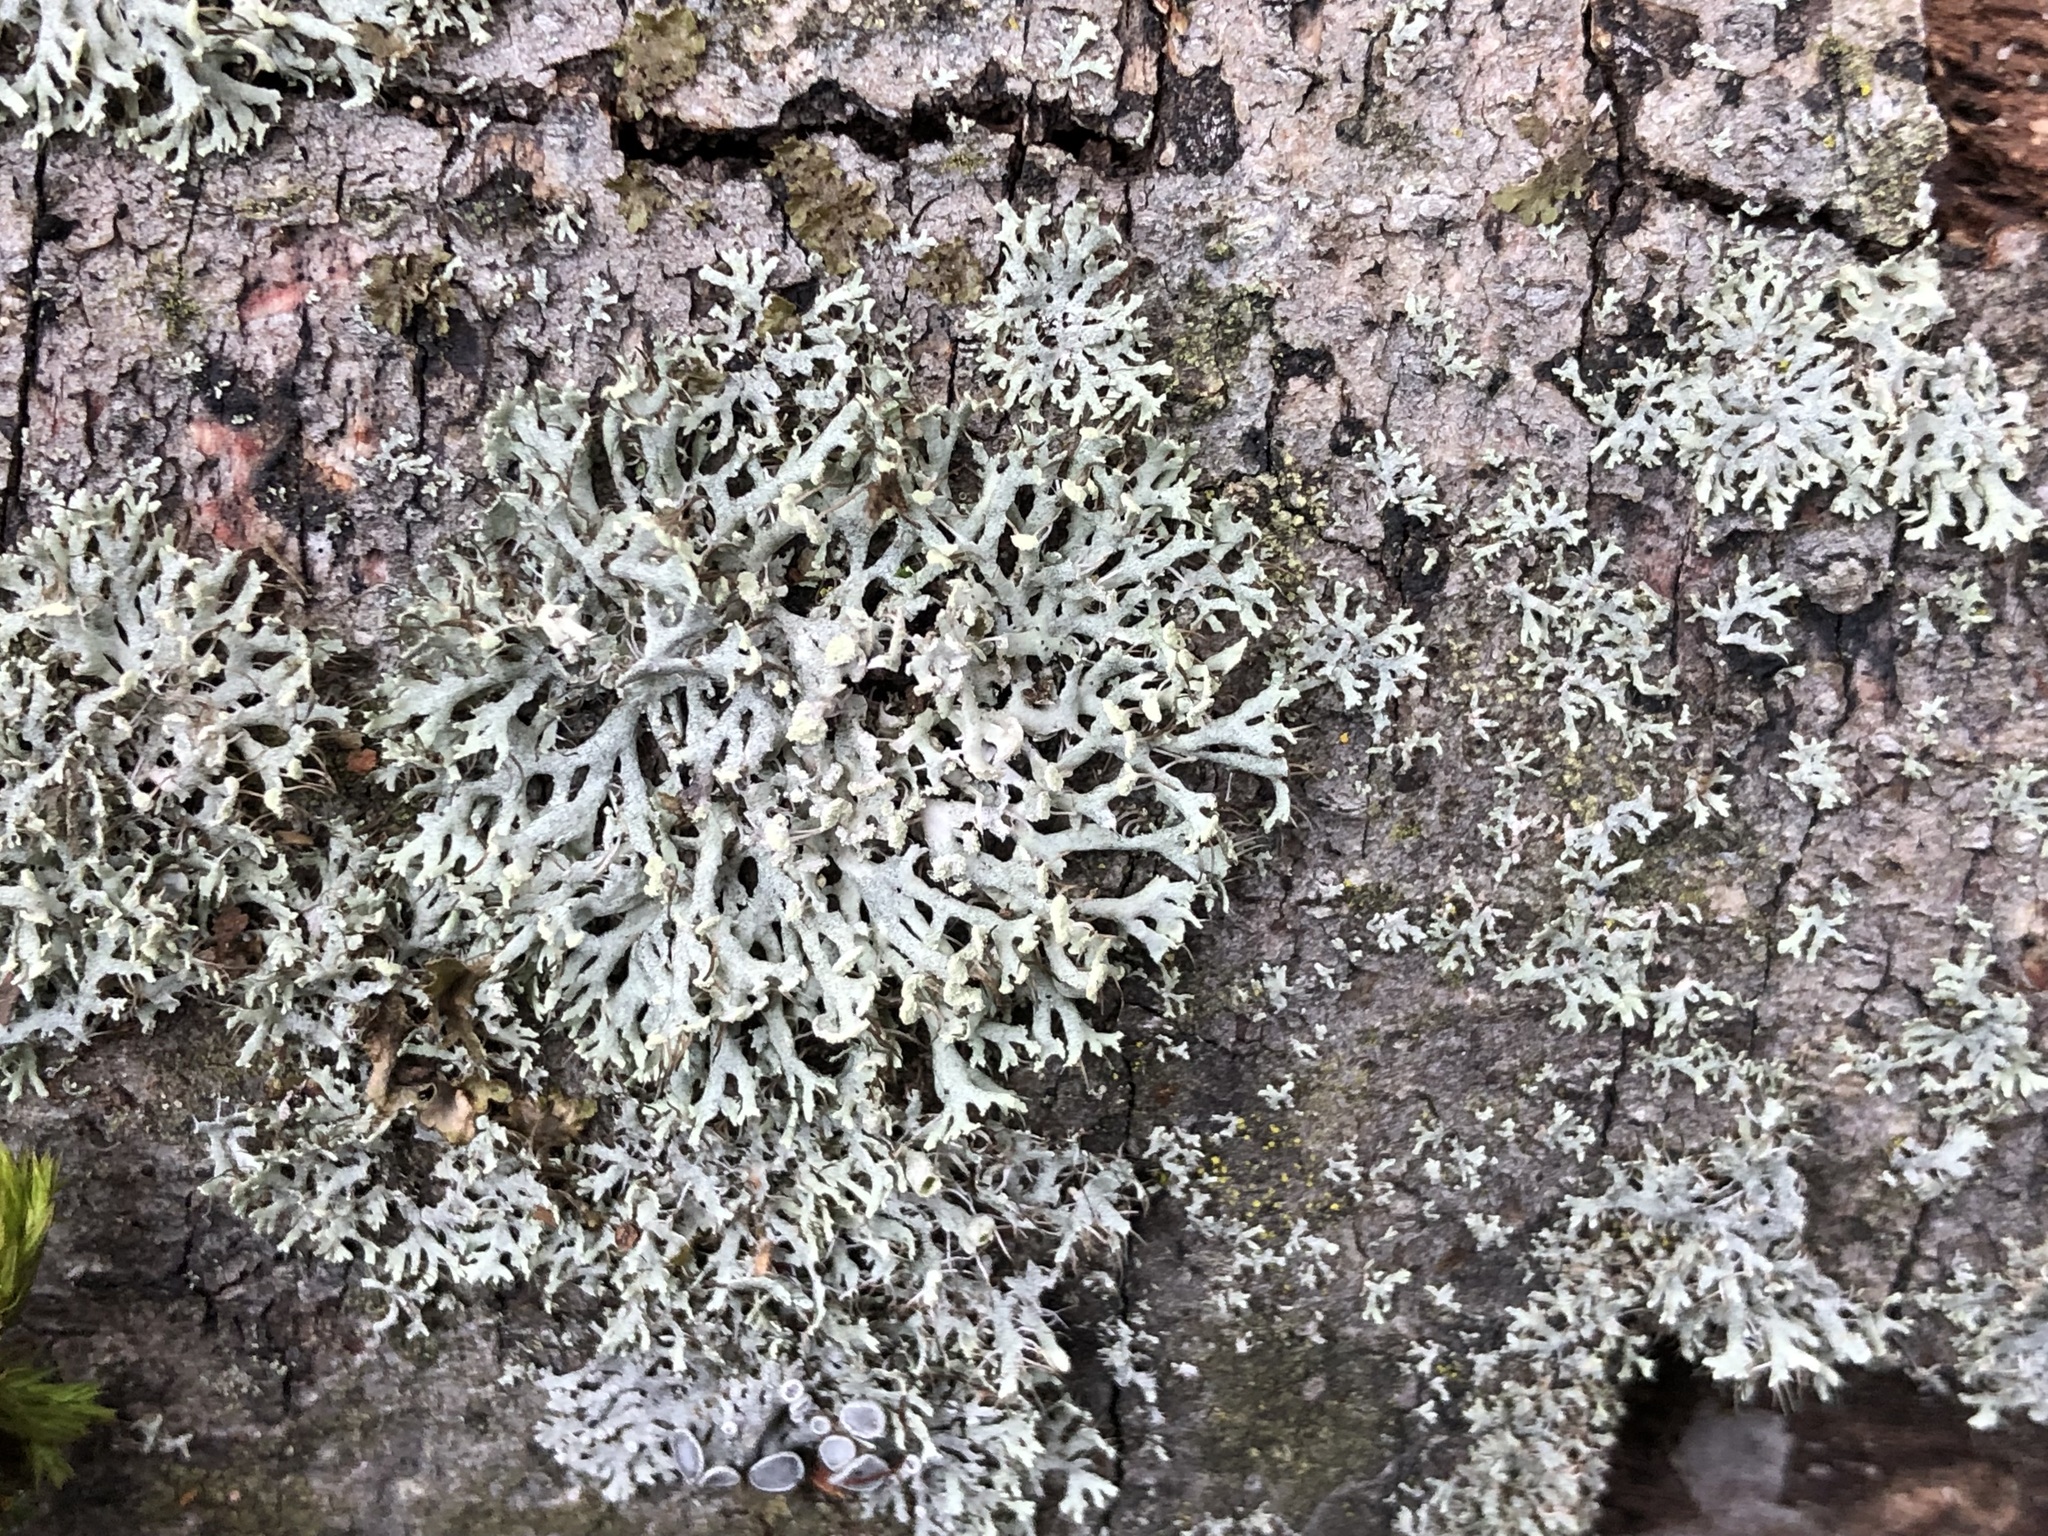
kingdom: Fungi
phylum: Ascomycota
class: Lecanoromycetes
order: Caliciales
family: Physciaceae
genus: Physcia
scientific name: Physcia tenella
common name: Fringed rosette lichen
